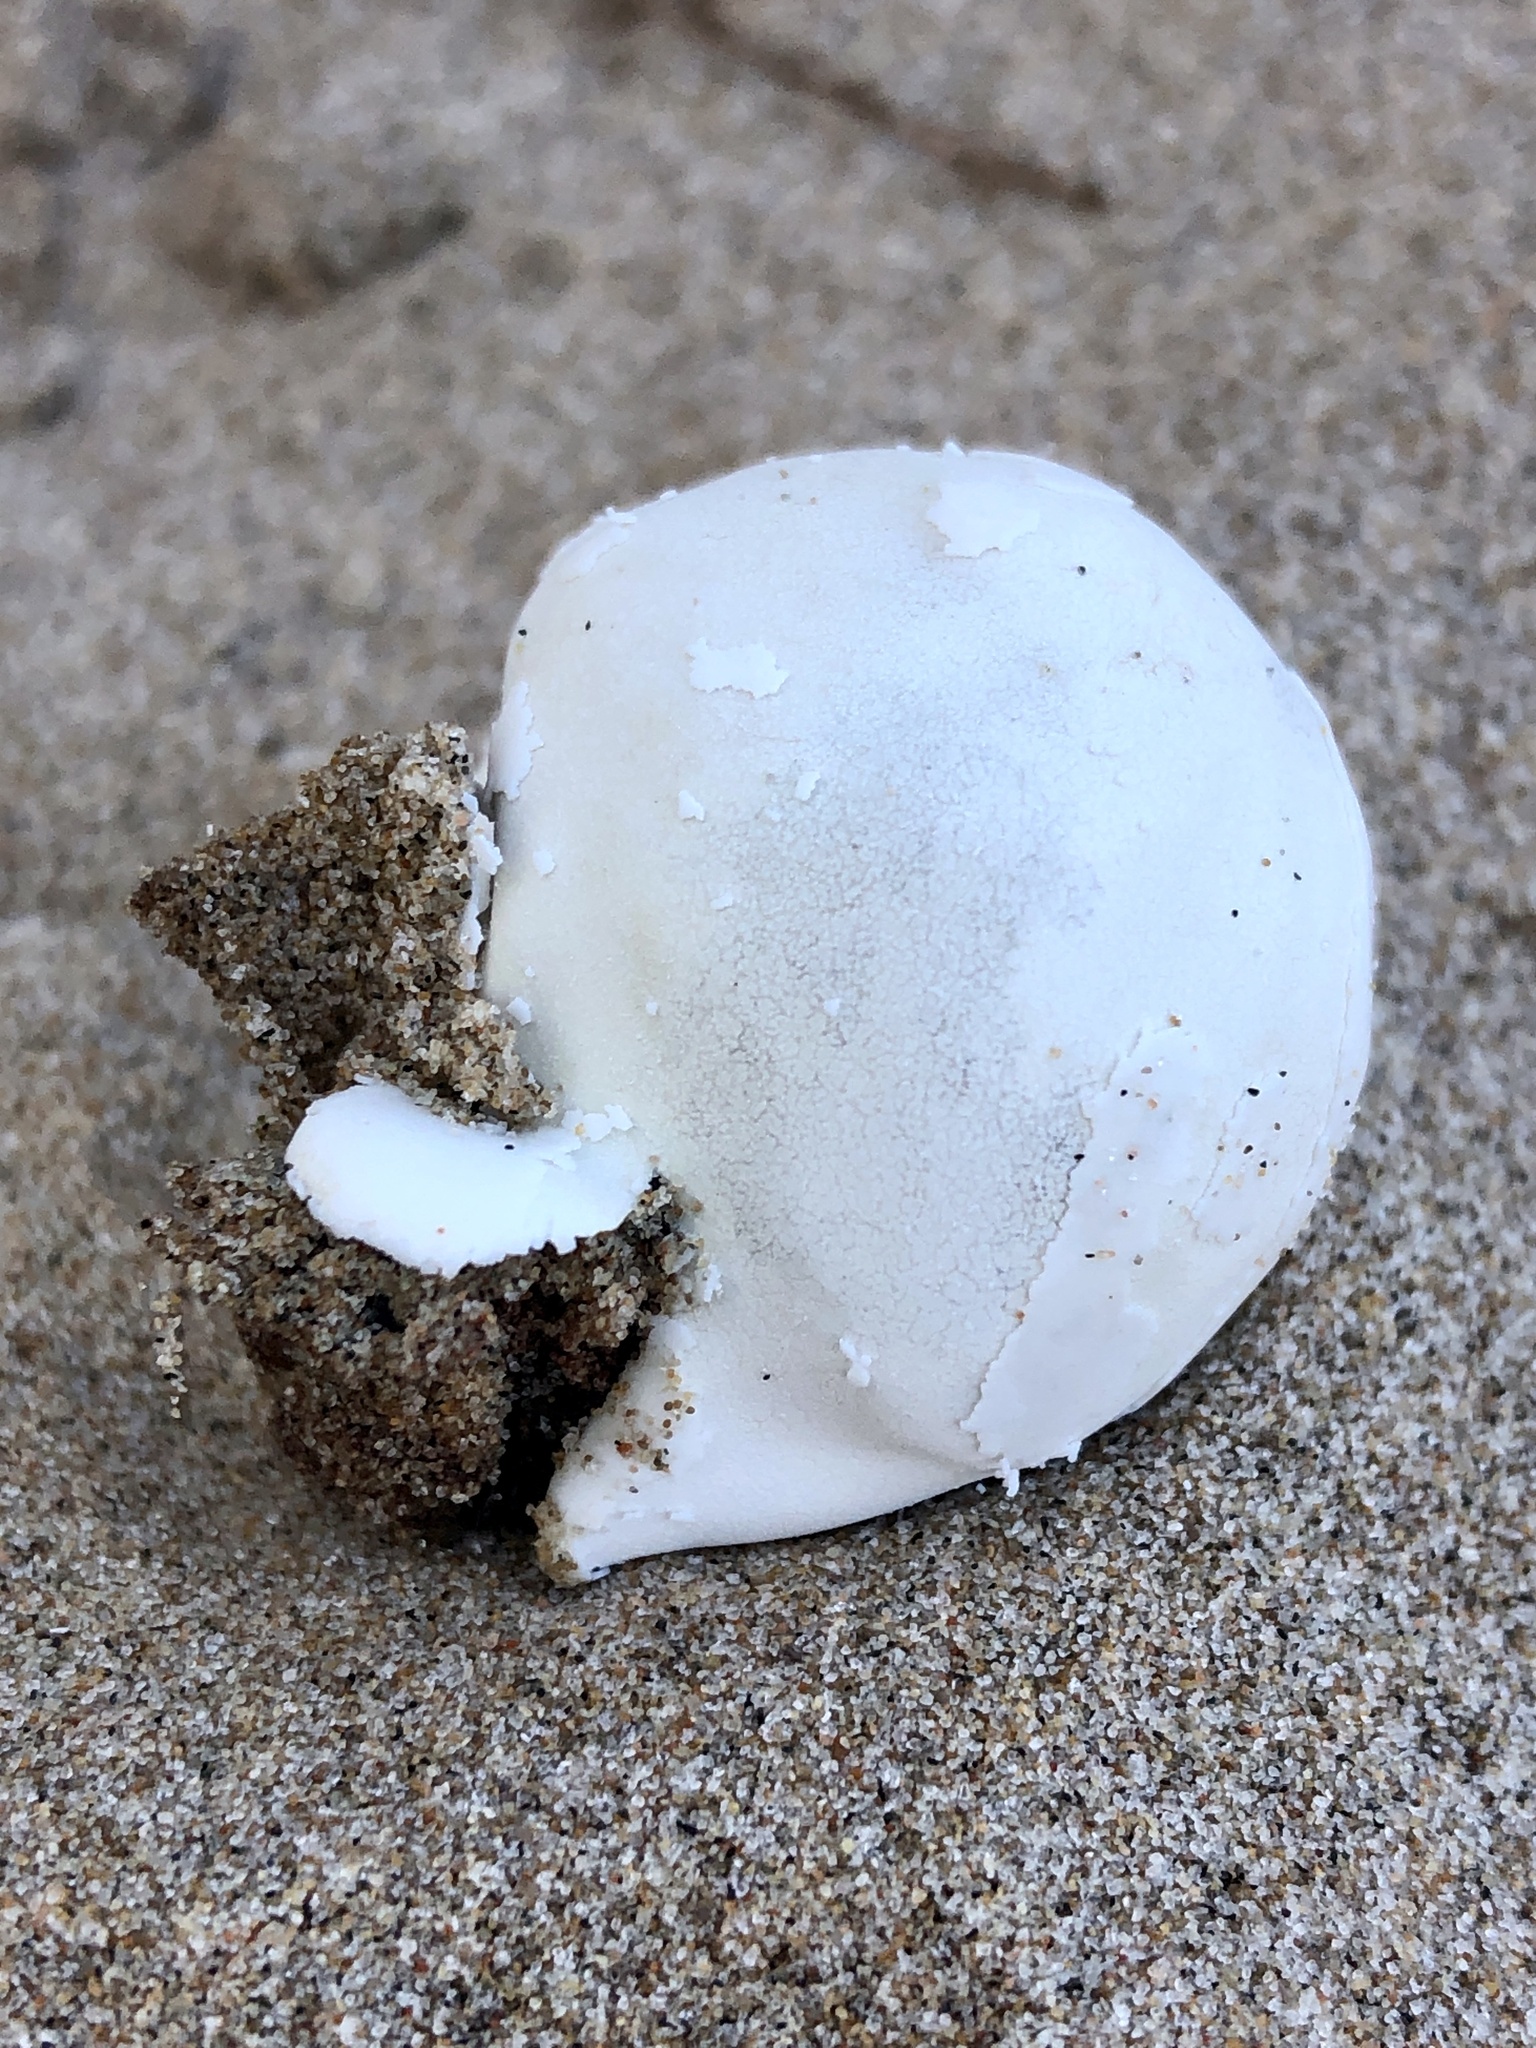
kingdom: Animalia
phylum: Chordata
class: Testudines
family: Chelydridae
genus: Chelydra
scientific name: Chelydra serpentina
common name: Common snapping turtle
